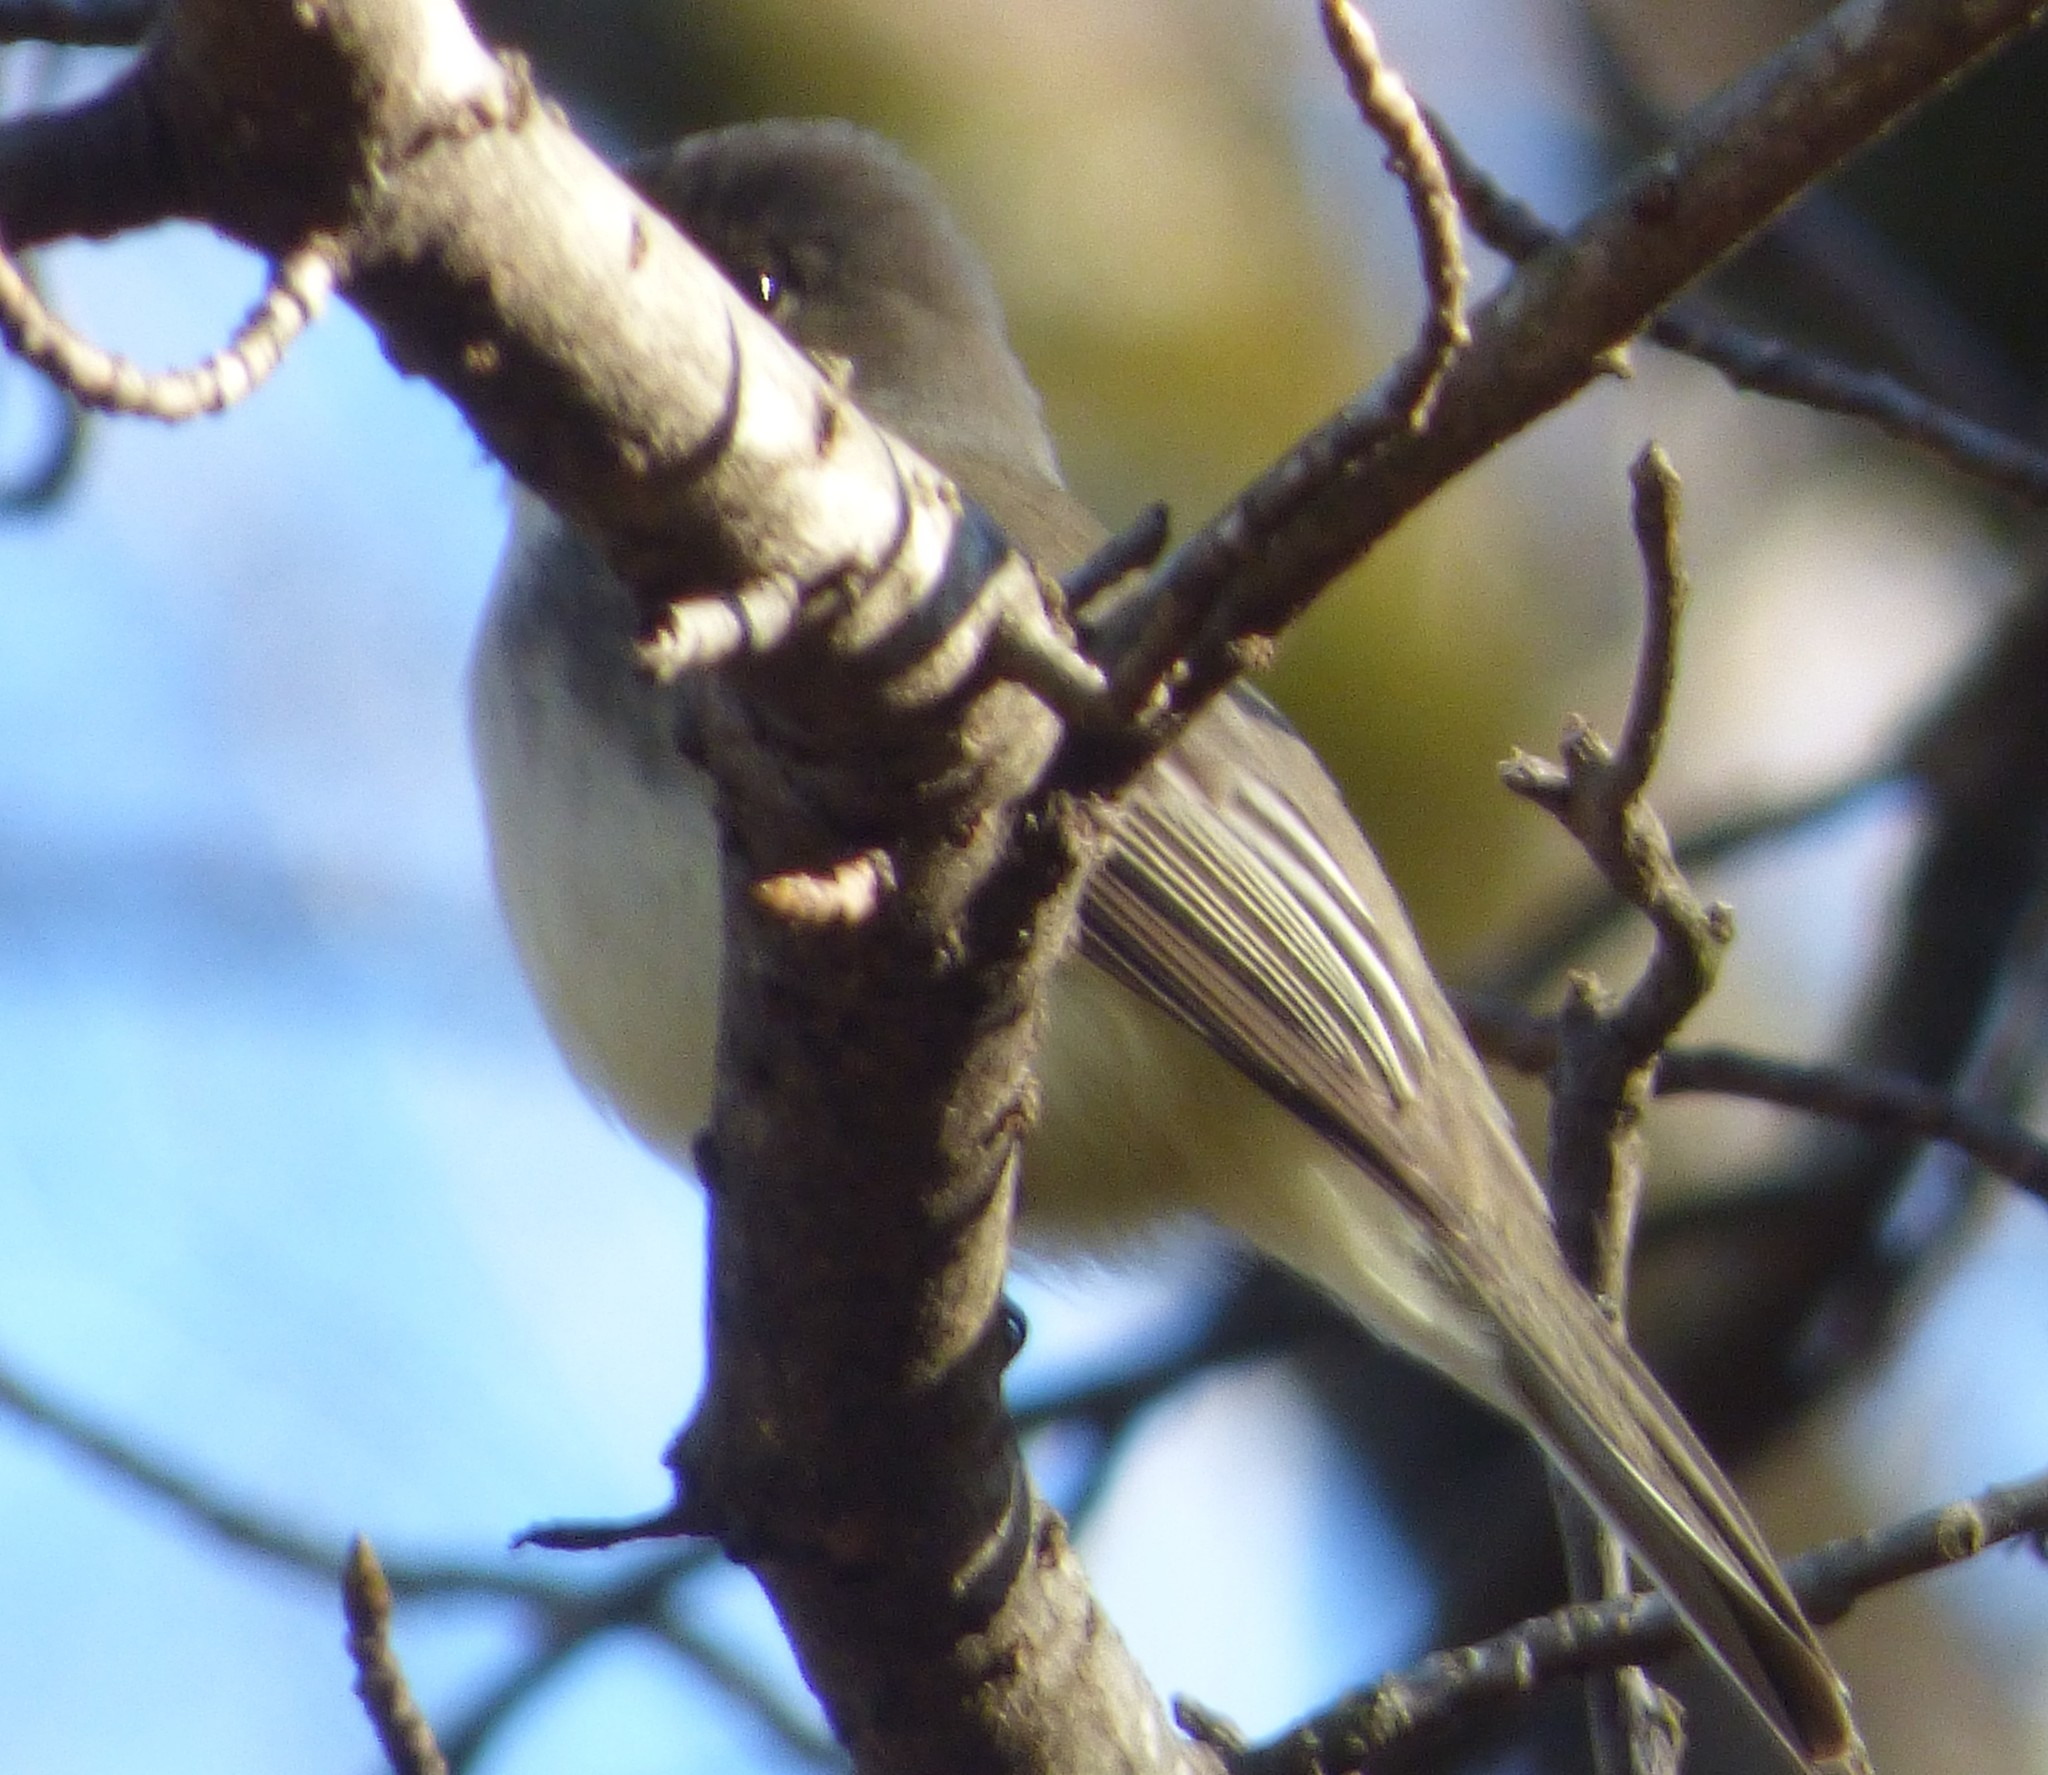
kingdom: Animalia
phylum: Chordata
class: Aves
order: Passeriformes
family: Tyrannidae
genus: Sayornis
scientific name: Sayornis phoebe
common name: Eastern phoebe
